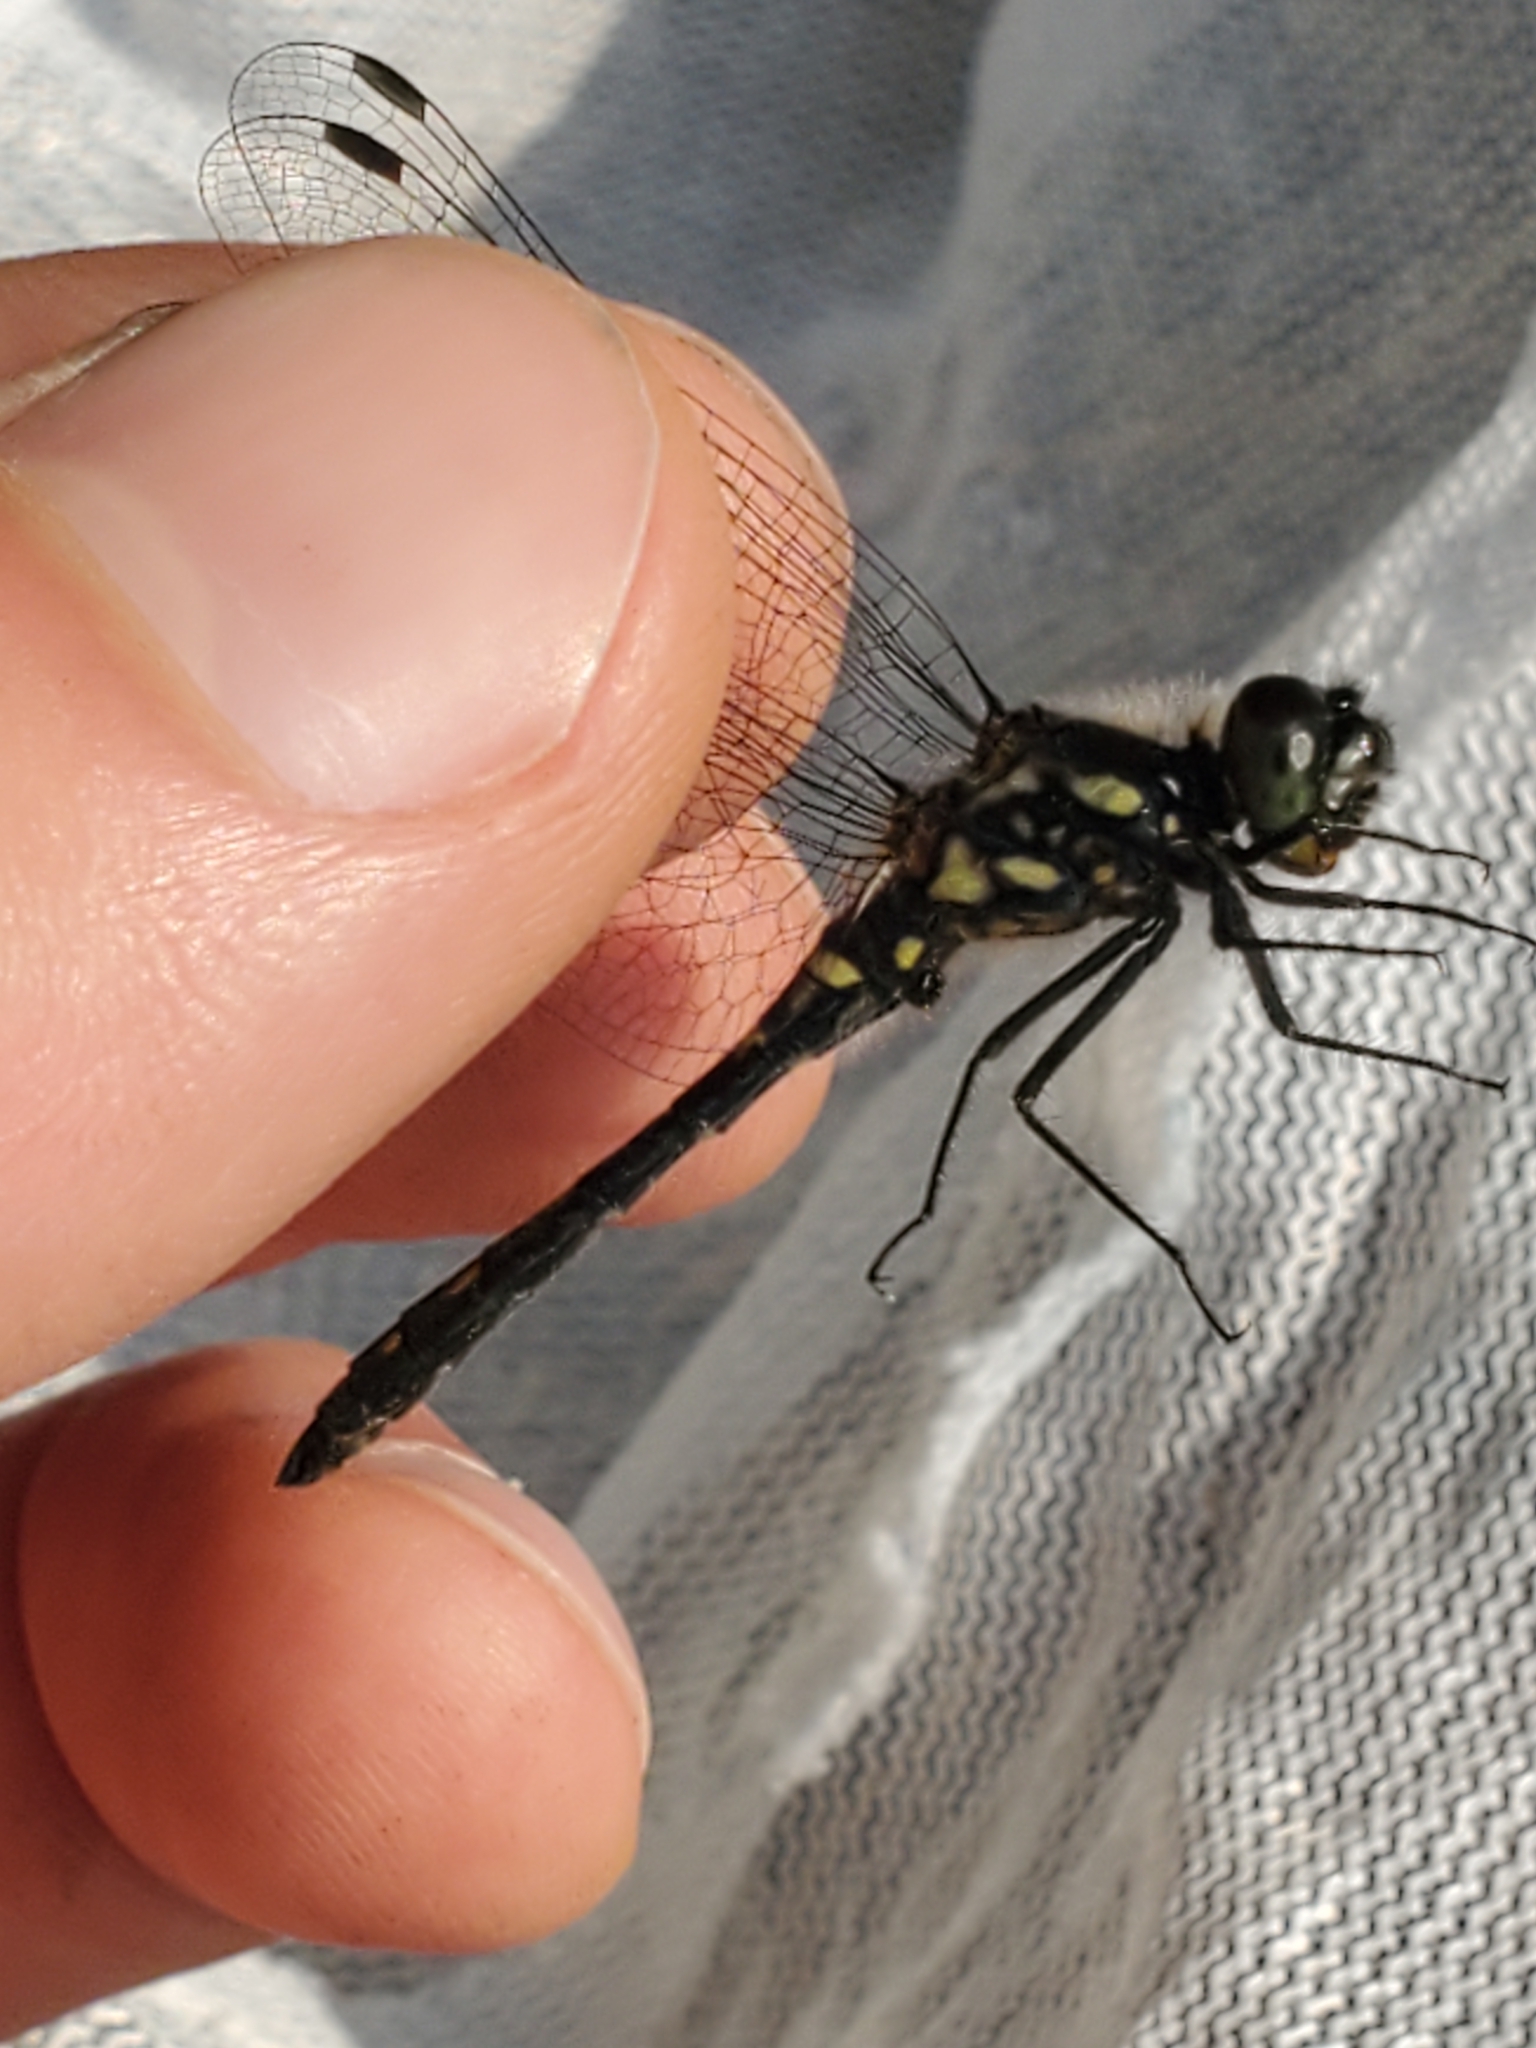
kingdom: Animalia
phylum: Arthropoda
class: Insecta
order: Odonata
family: Libellulidae
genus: Sympetrum
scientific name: Sympetrum danae
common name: Black darter
